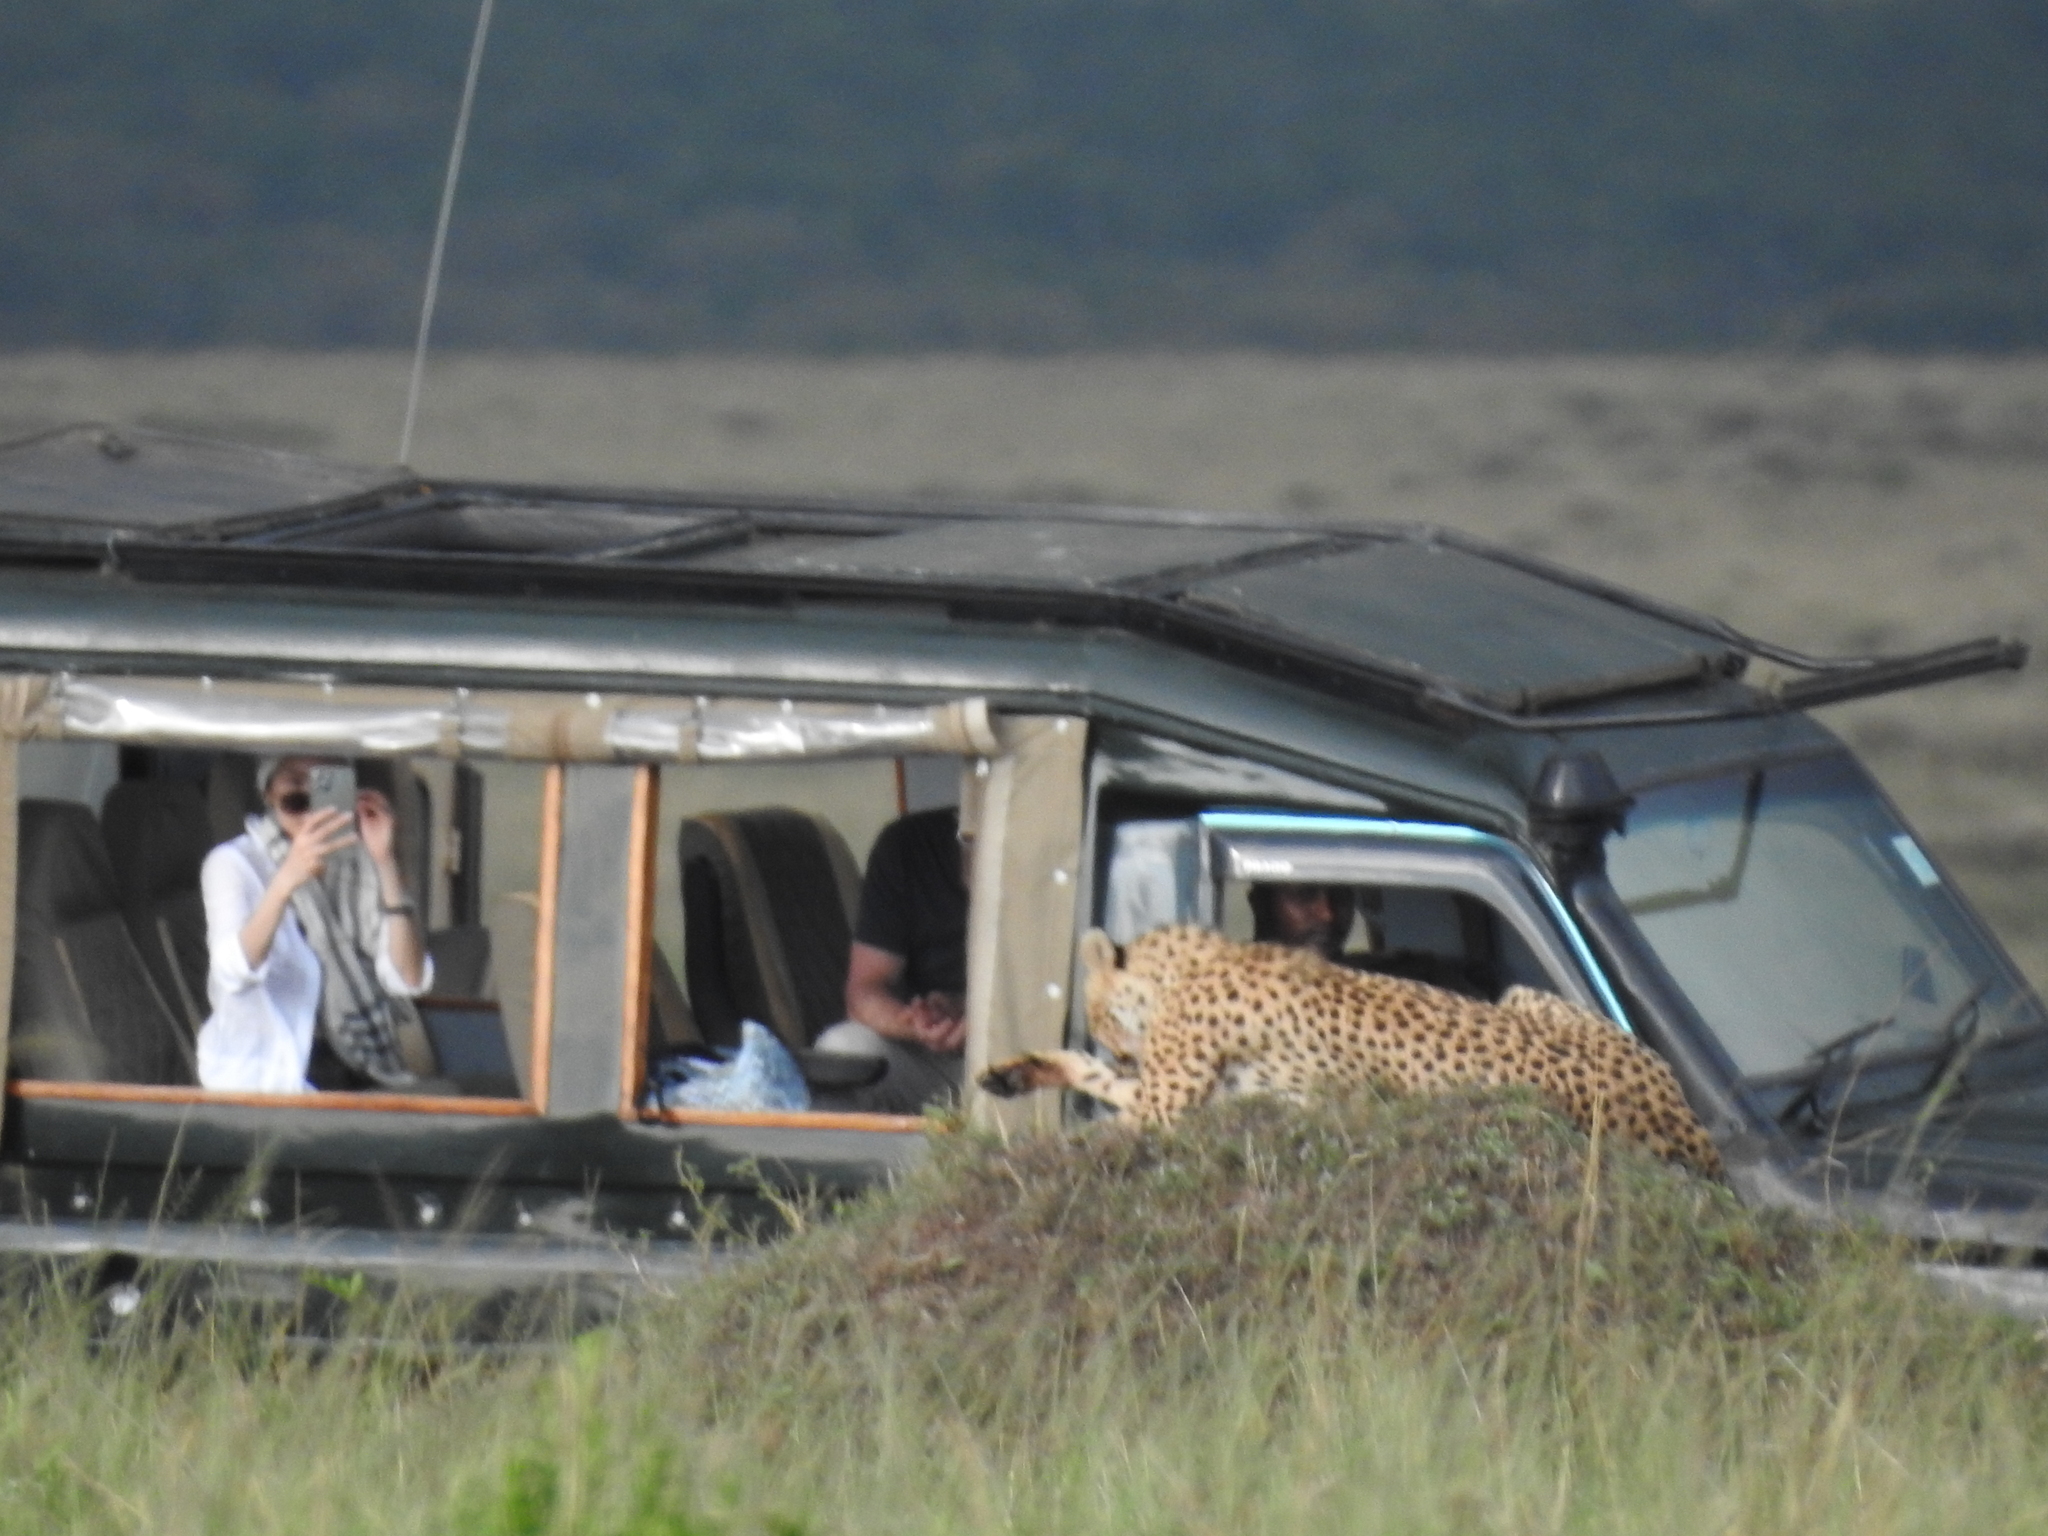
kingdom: Animalia
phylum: Chordata
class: Mammalia
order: Carnivora
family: Felidae
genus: Acinonyx
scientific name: Acinonyx jubatus
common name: Cheetah
